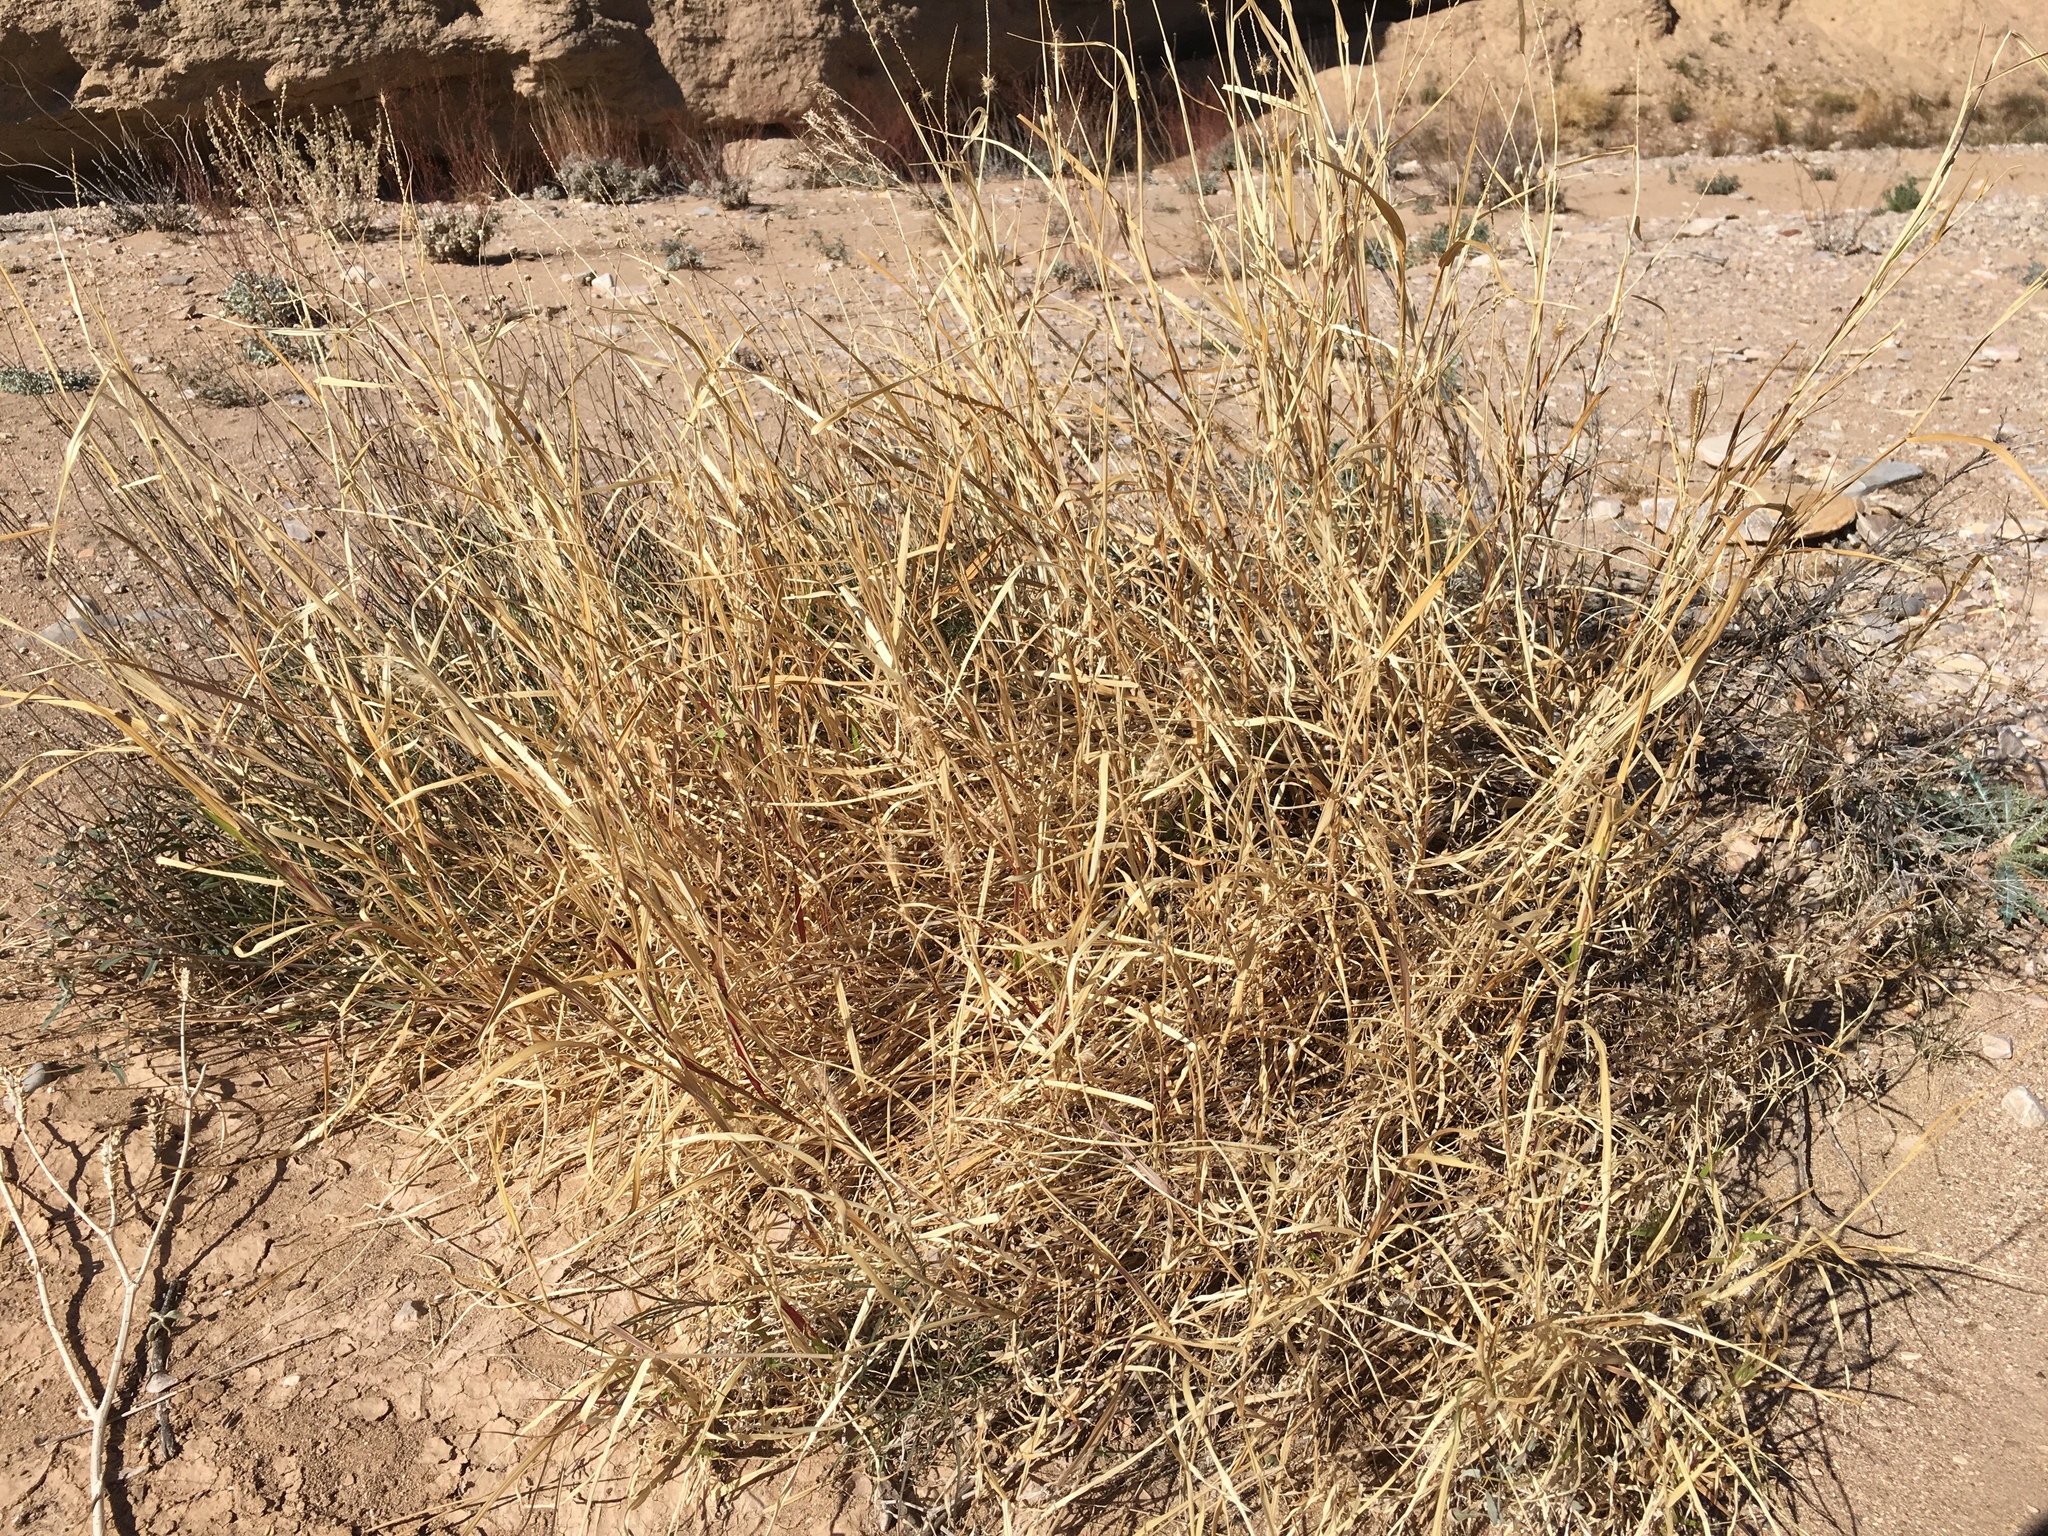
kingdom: Plantae
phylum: Tracheophyta
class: Liliopsida
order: Poales
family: Poaceae
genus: Cenchrus
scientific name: Cenchrus ciliaris
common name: Buffelgrass
